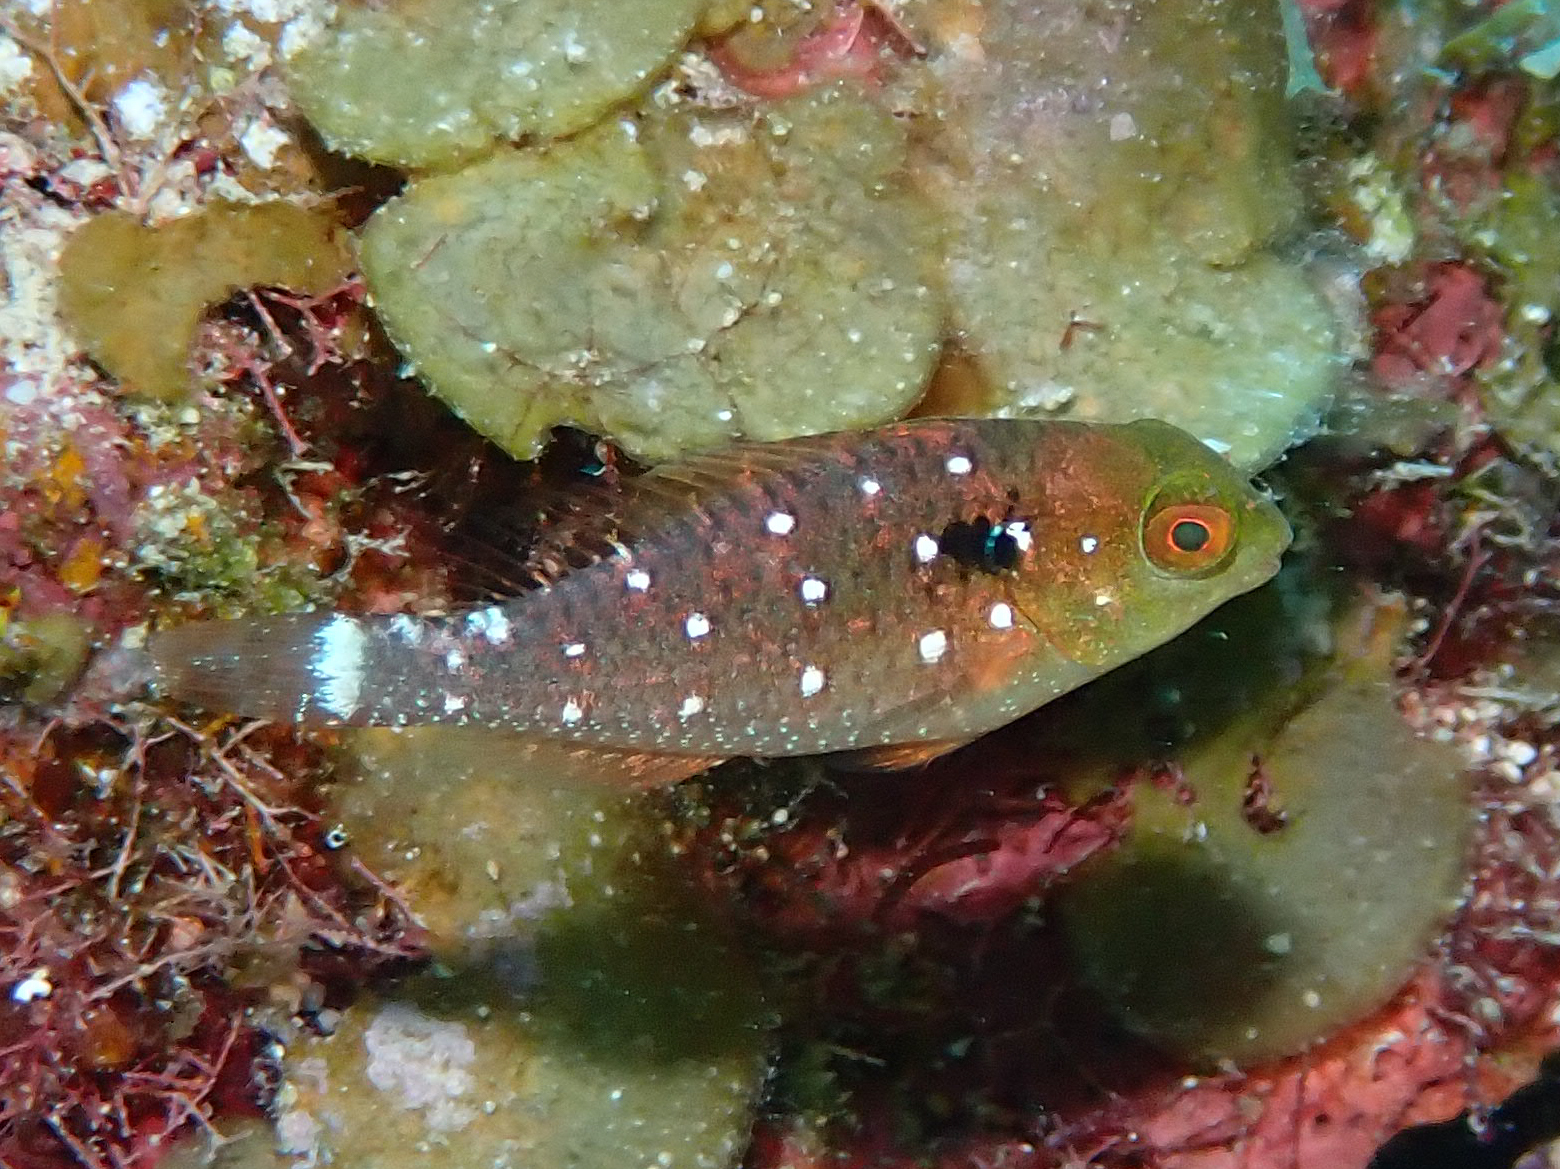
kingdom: Animalia
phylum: Chordata
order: Perciformes
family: Scaridae
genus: Sparisoma
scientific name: Sparisoma viride
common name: Stoplight parrotfish
